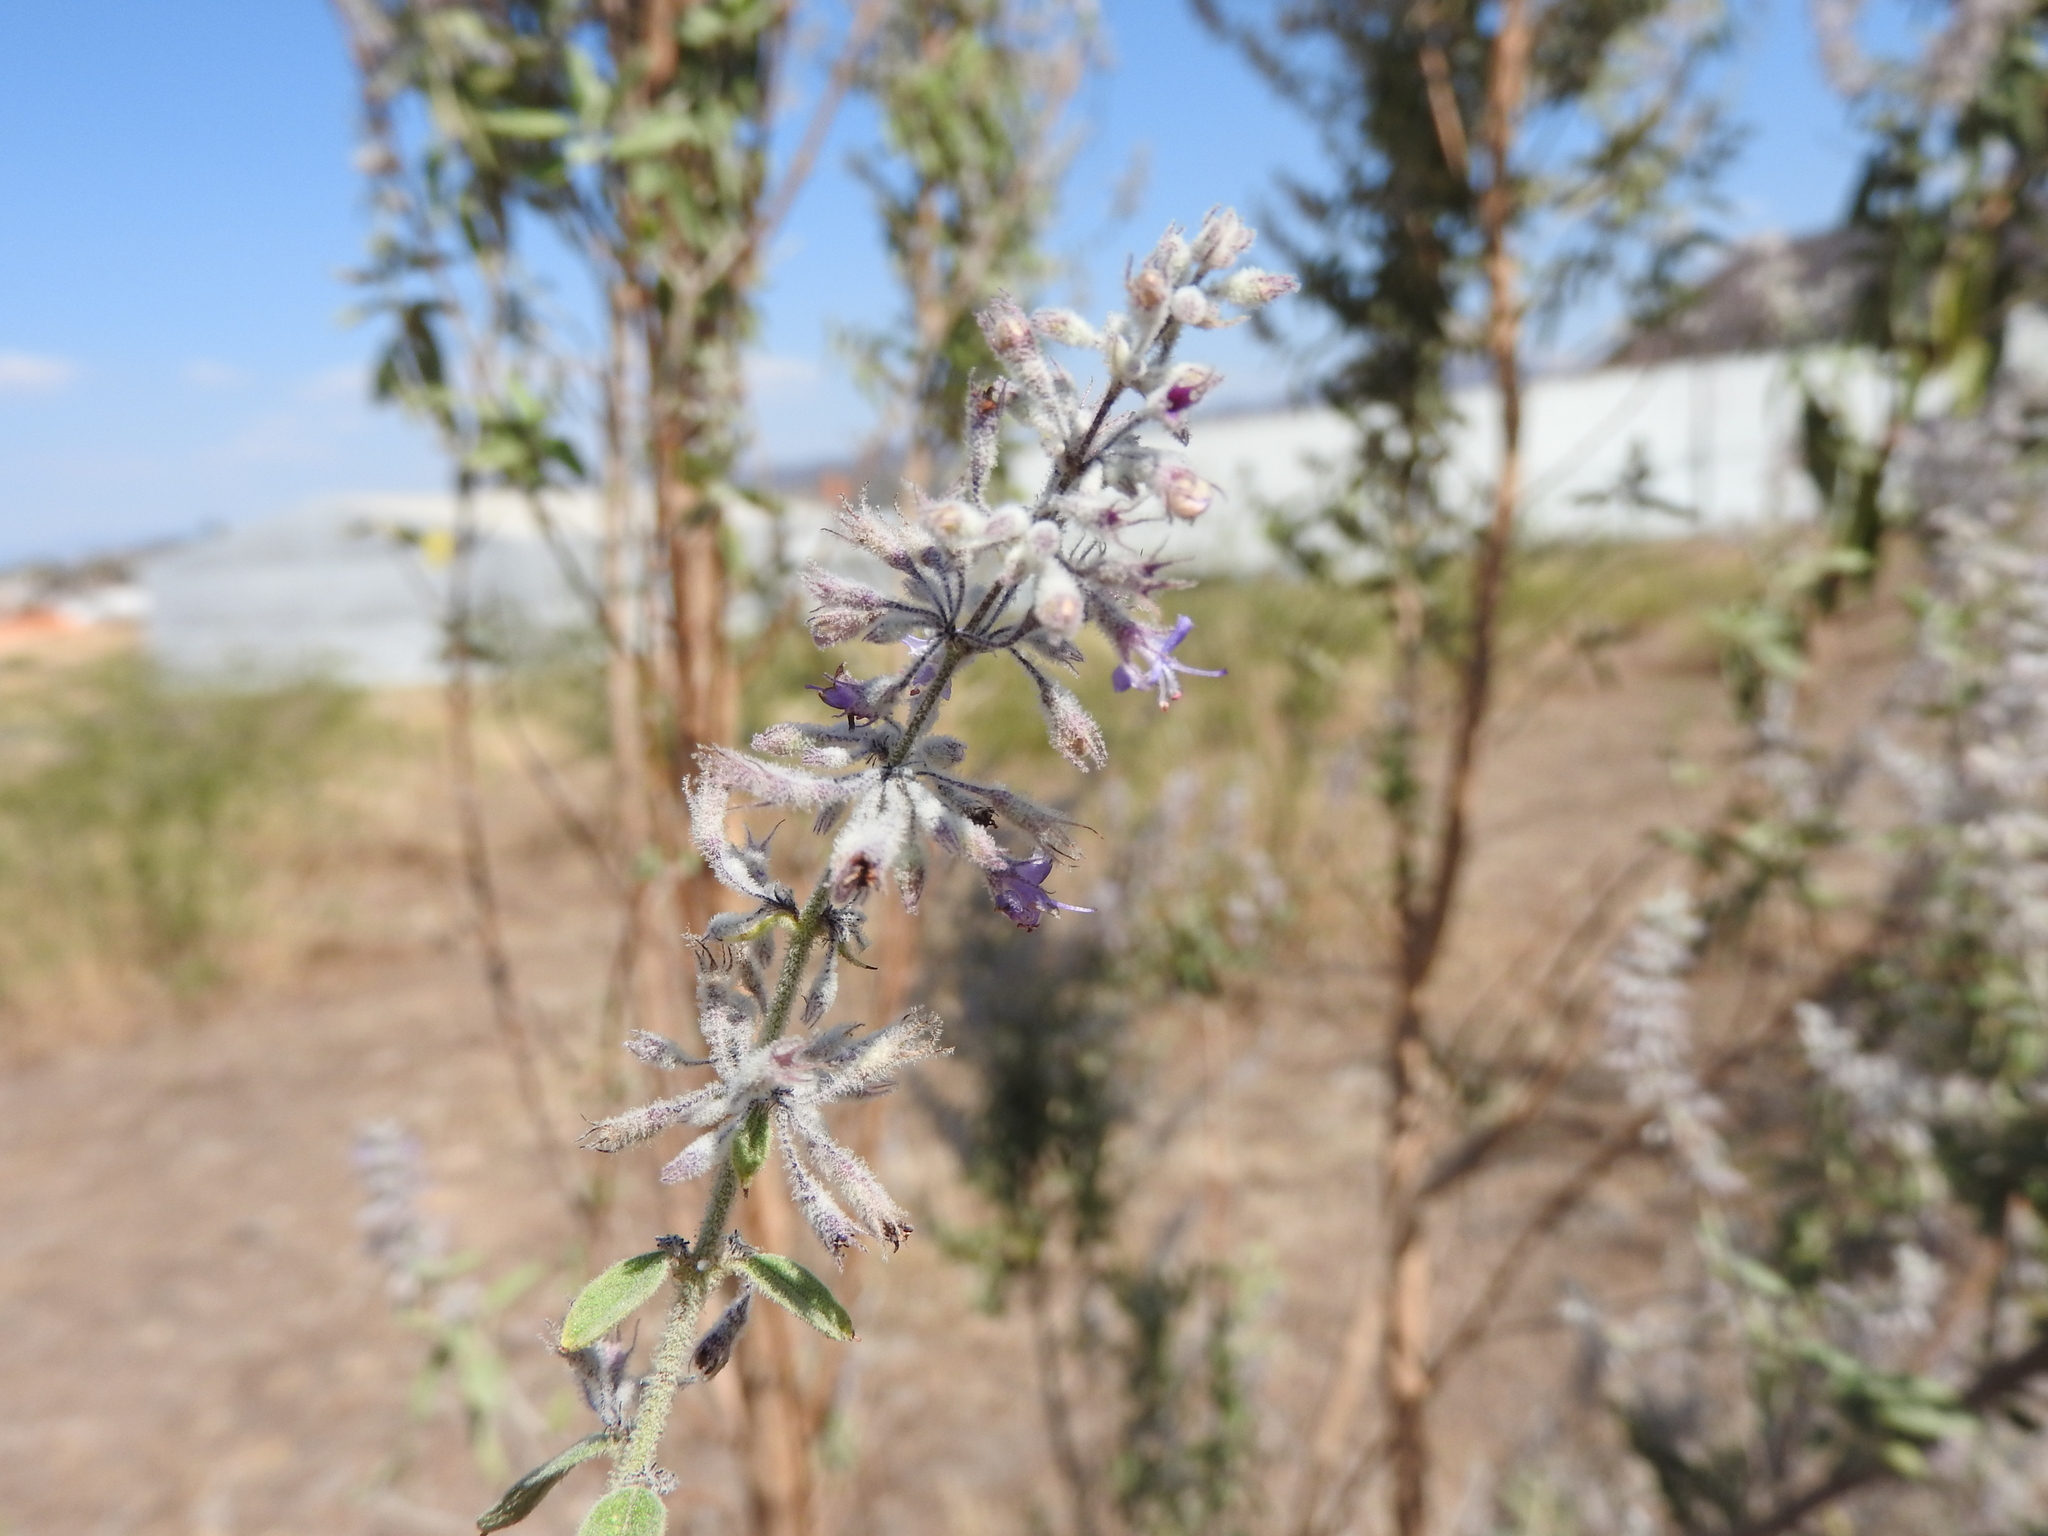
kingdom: Plantae
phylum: Tracheophyta
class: Magnoliopsida
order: Lamiales
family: Lamiaceae
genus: Condea
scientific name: Condea albida
